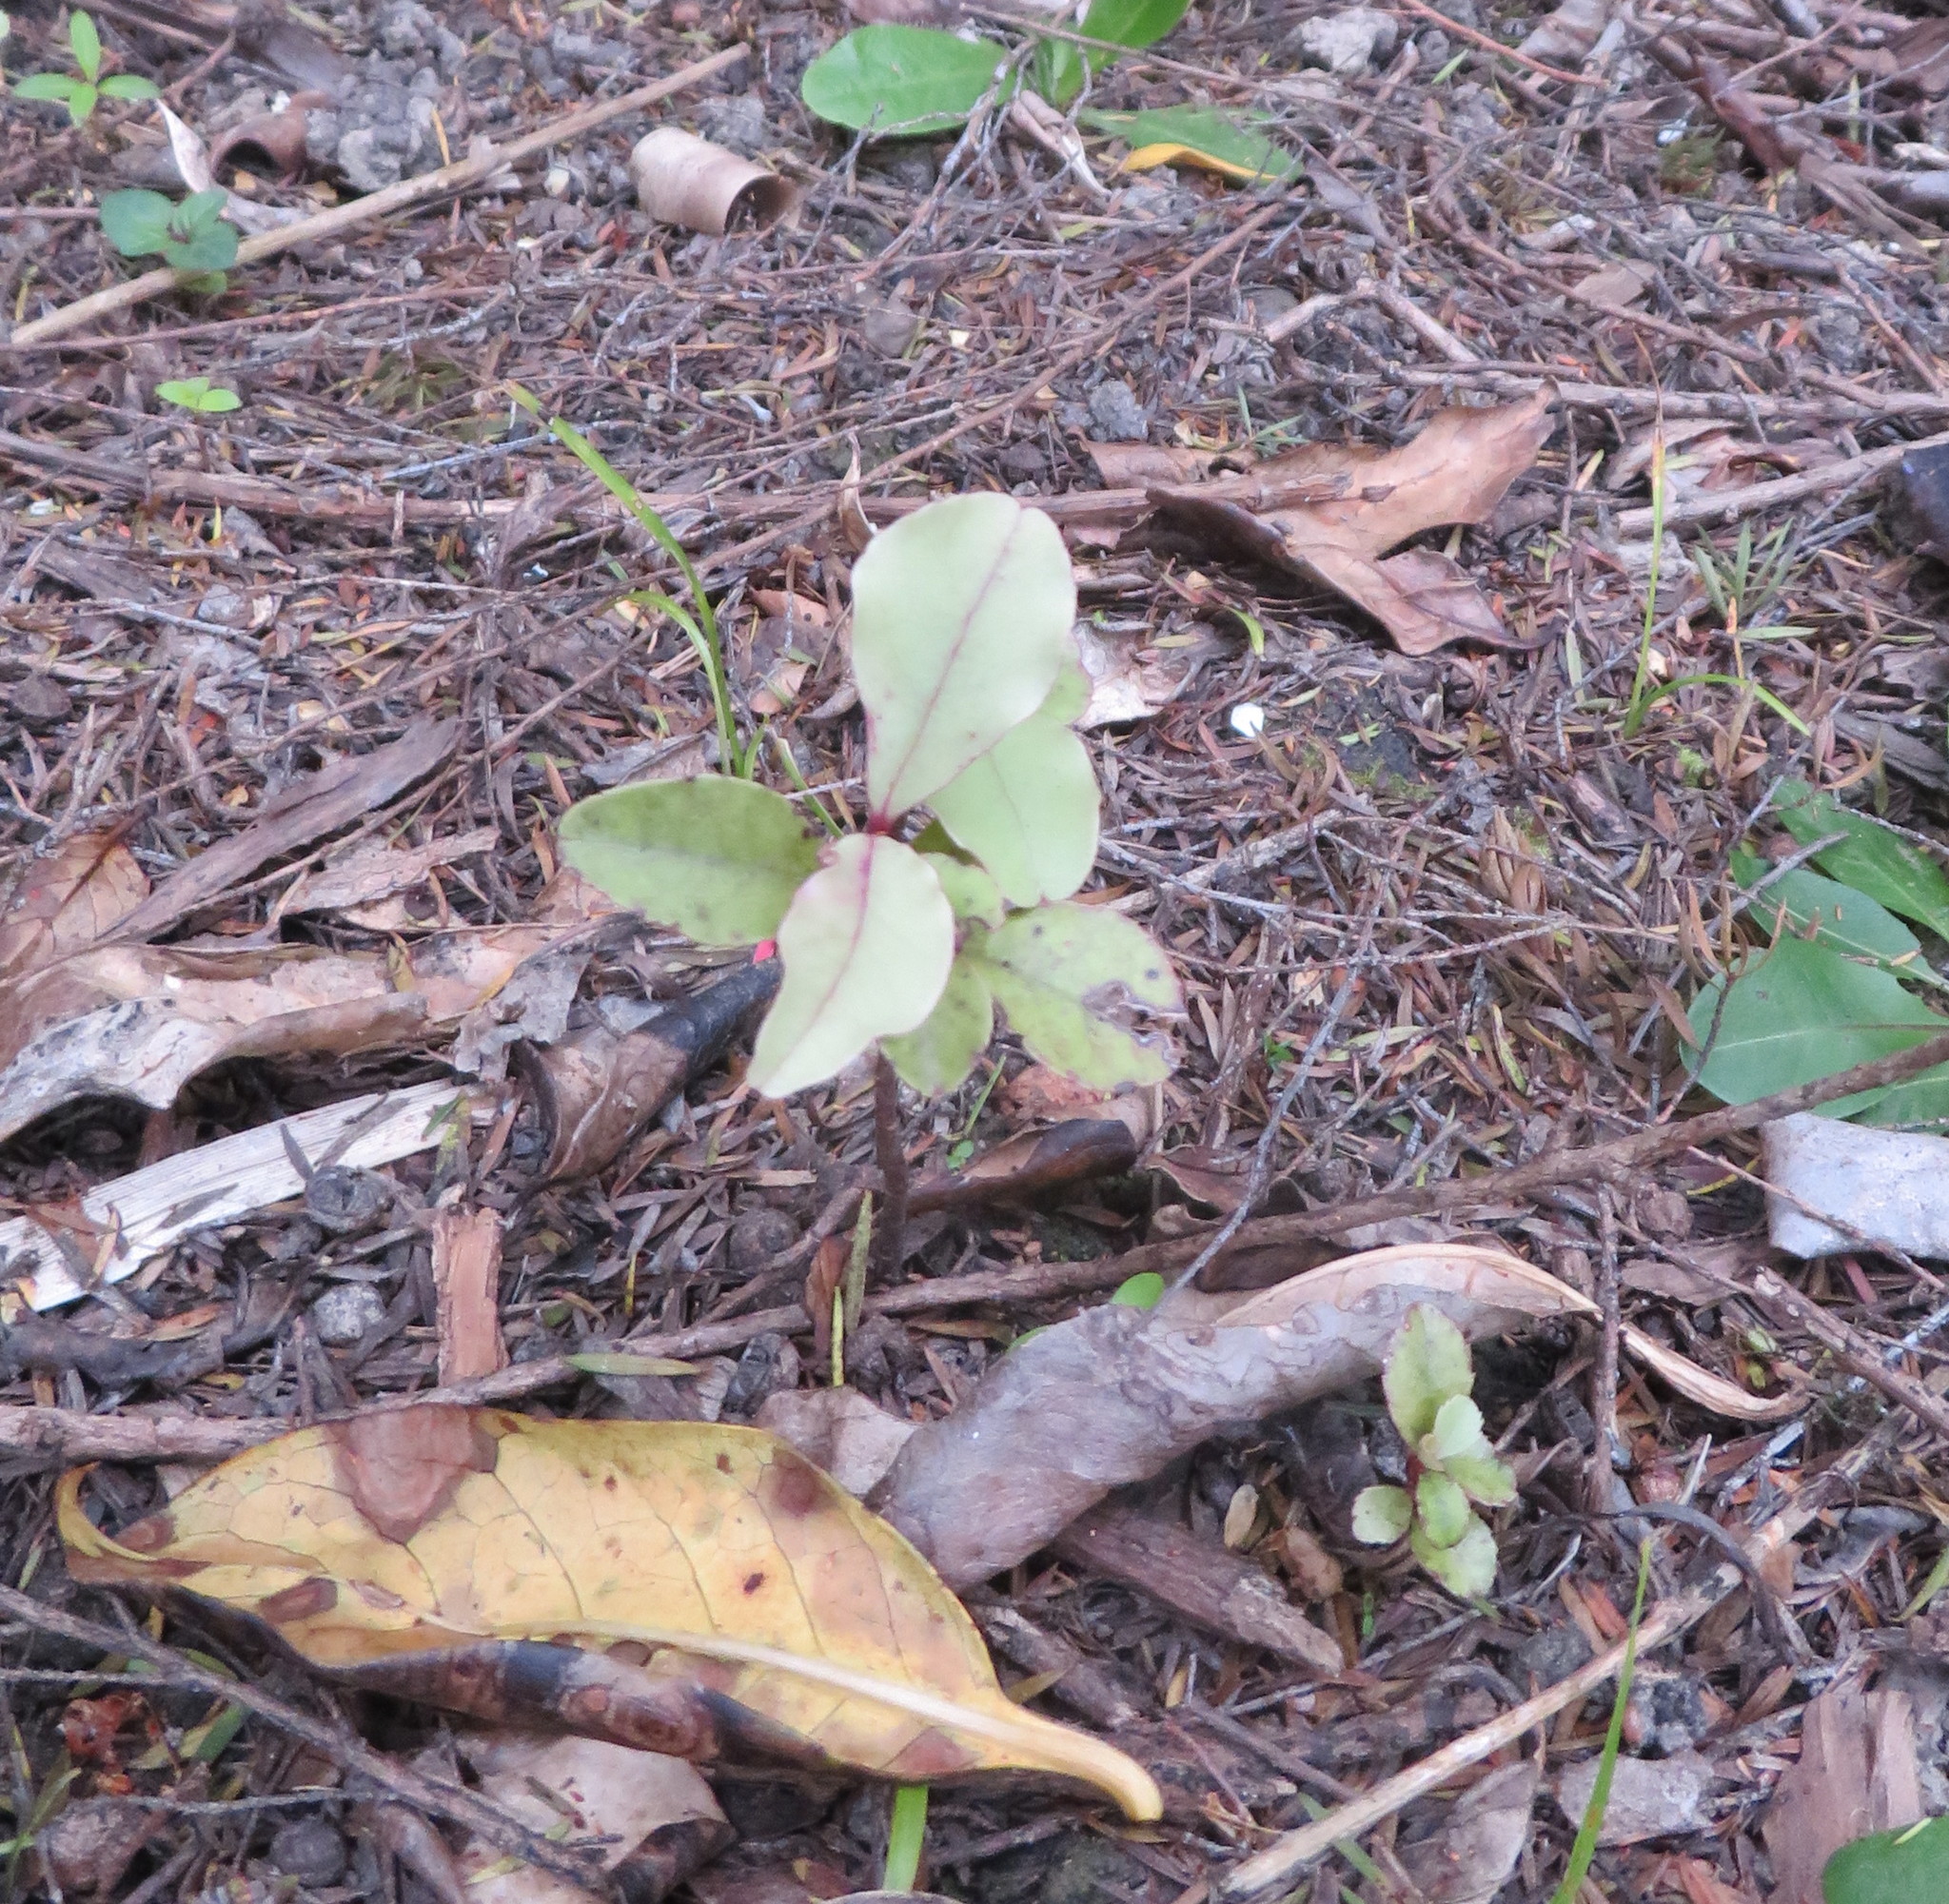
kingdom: Plantae
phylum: Tracheophyta
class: Magnoliopsida
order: Ericales
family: Primulaceae
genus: Myrsine
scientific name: Myrsine australis
